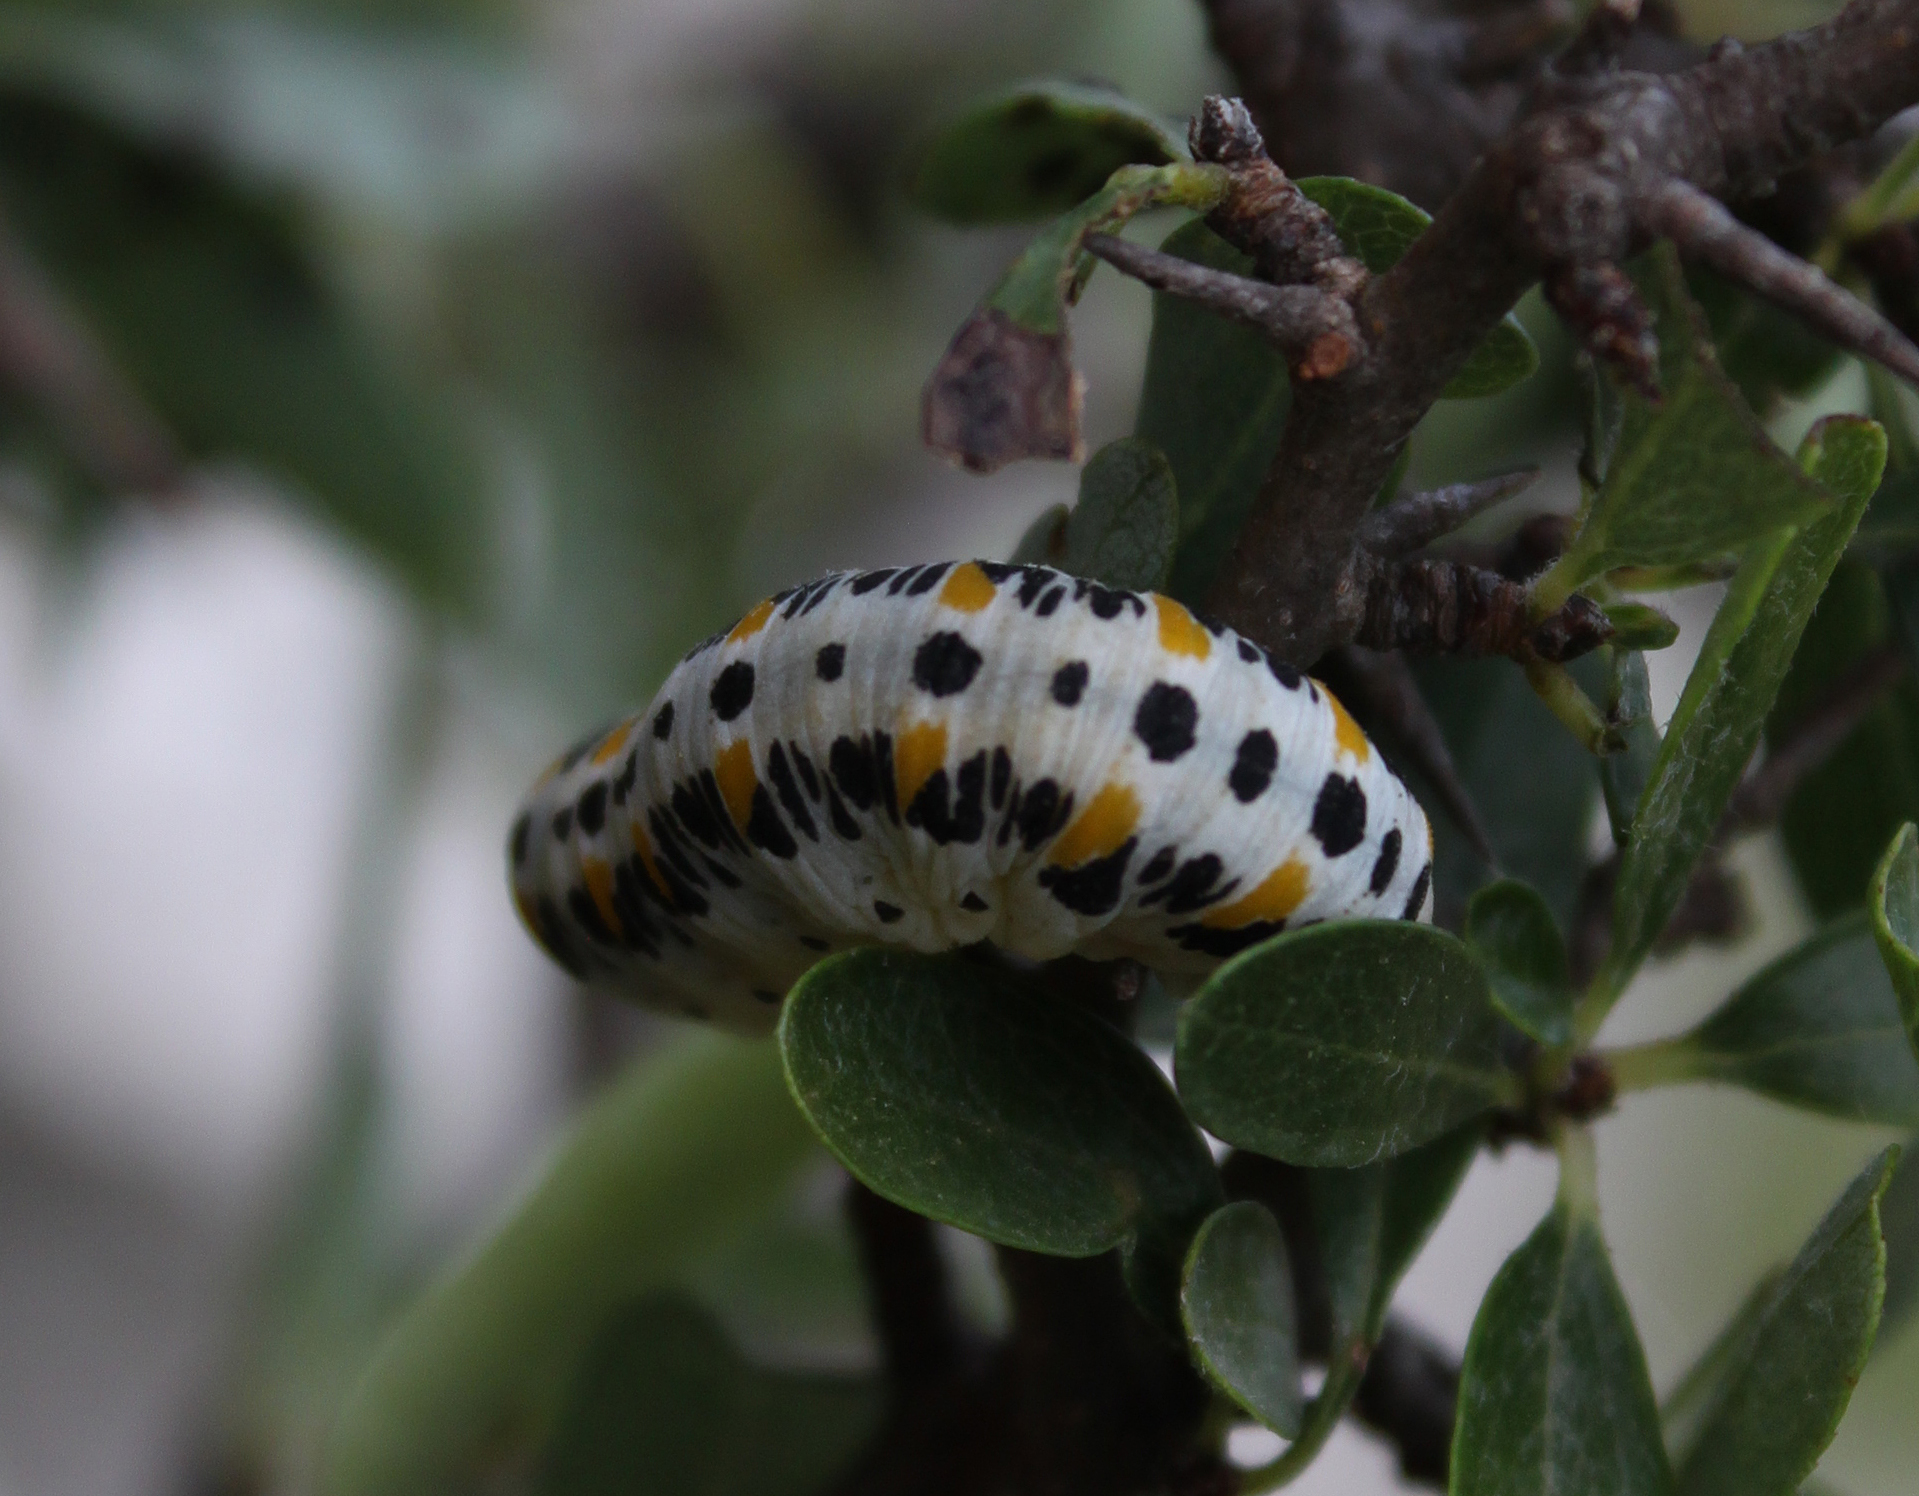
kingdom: Animalia
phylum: Arthropoda
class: Insecta
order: Hymenoptera
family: Cimbicidae
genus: Cimbex
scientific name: Cimbex quadrimaculatus
